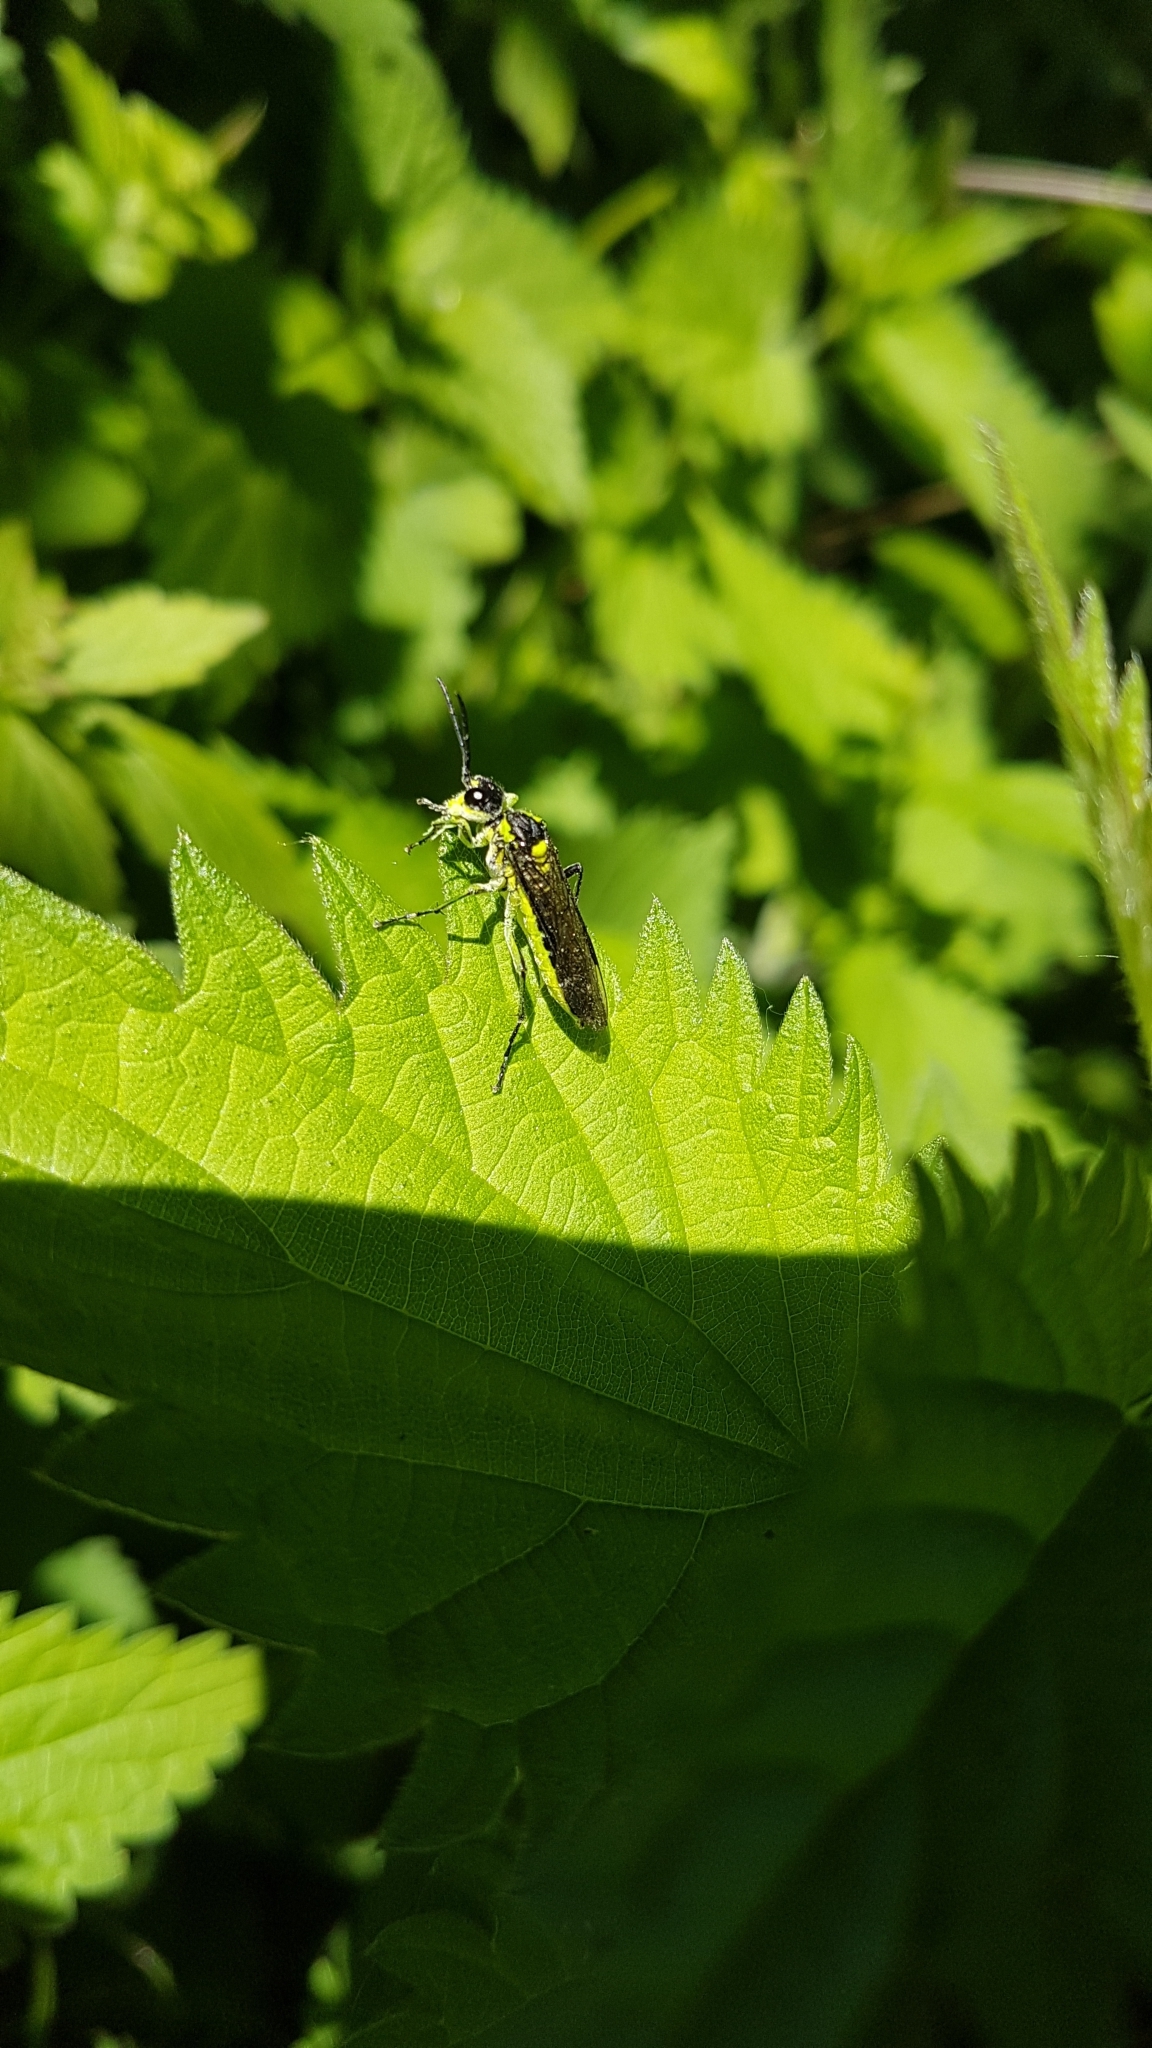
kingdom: Animalia
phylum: Arthropoda
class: Insecta
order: Hymenoptera
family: Tenthredinidae
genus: Tenthredo
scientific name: Tenthredo mesomela
